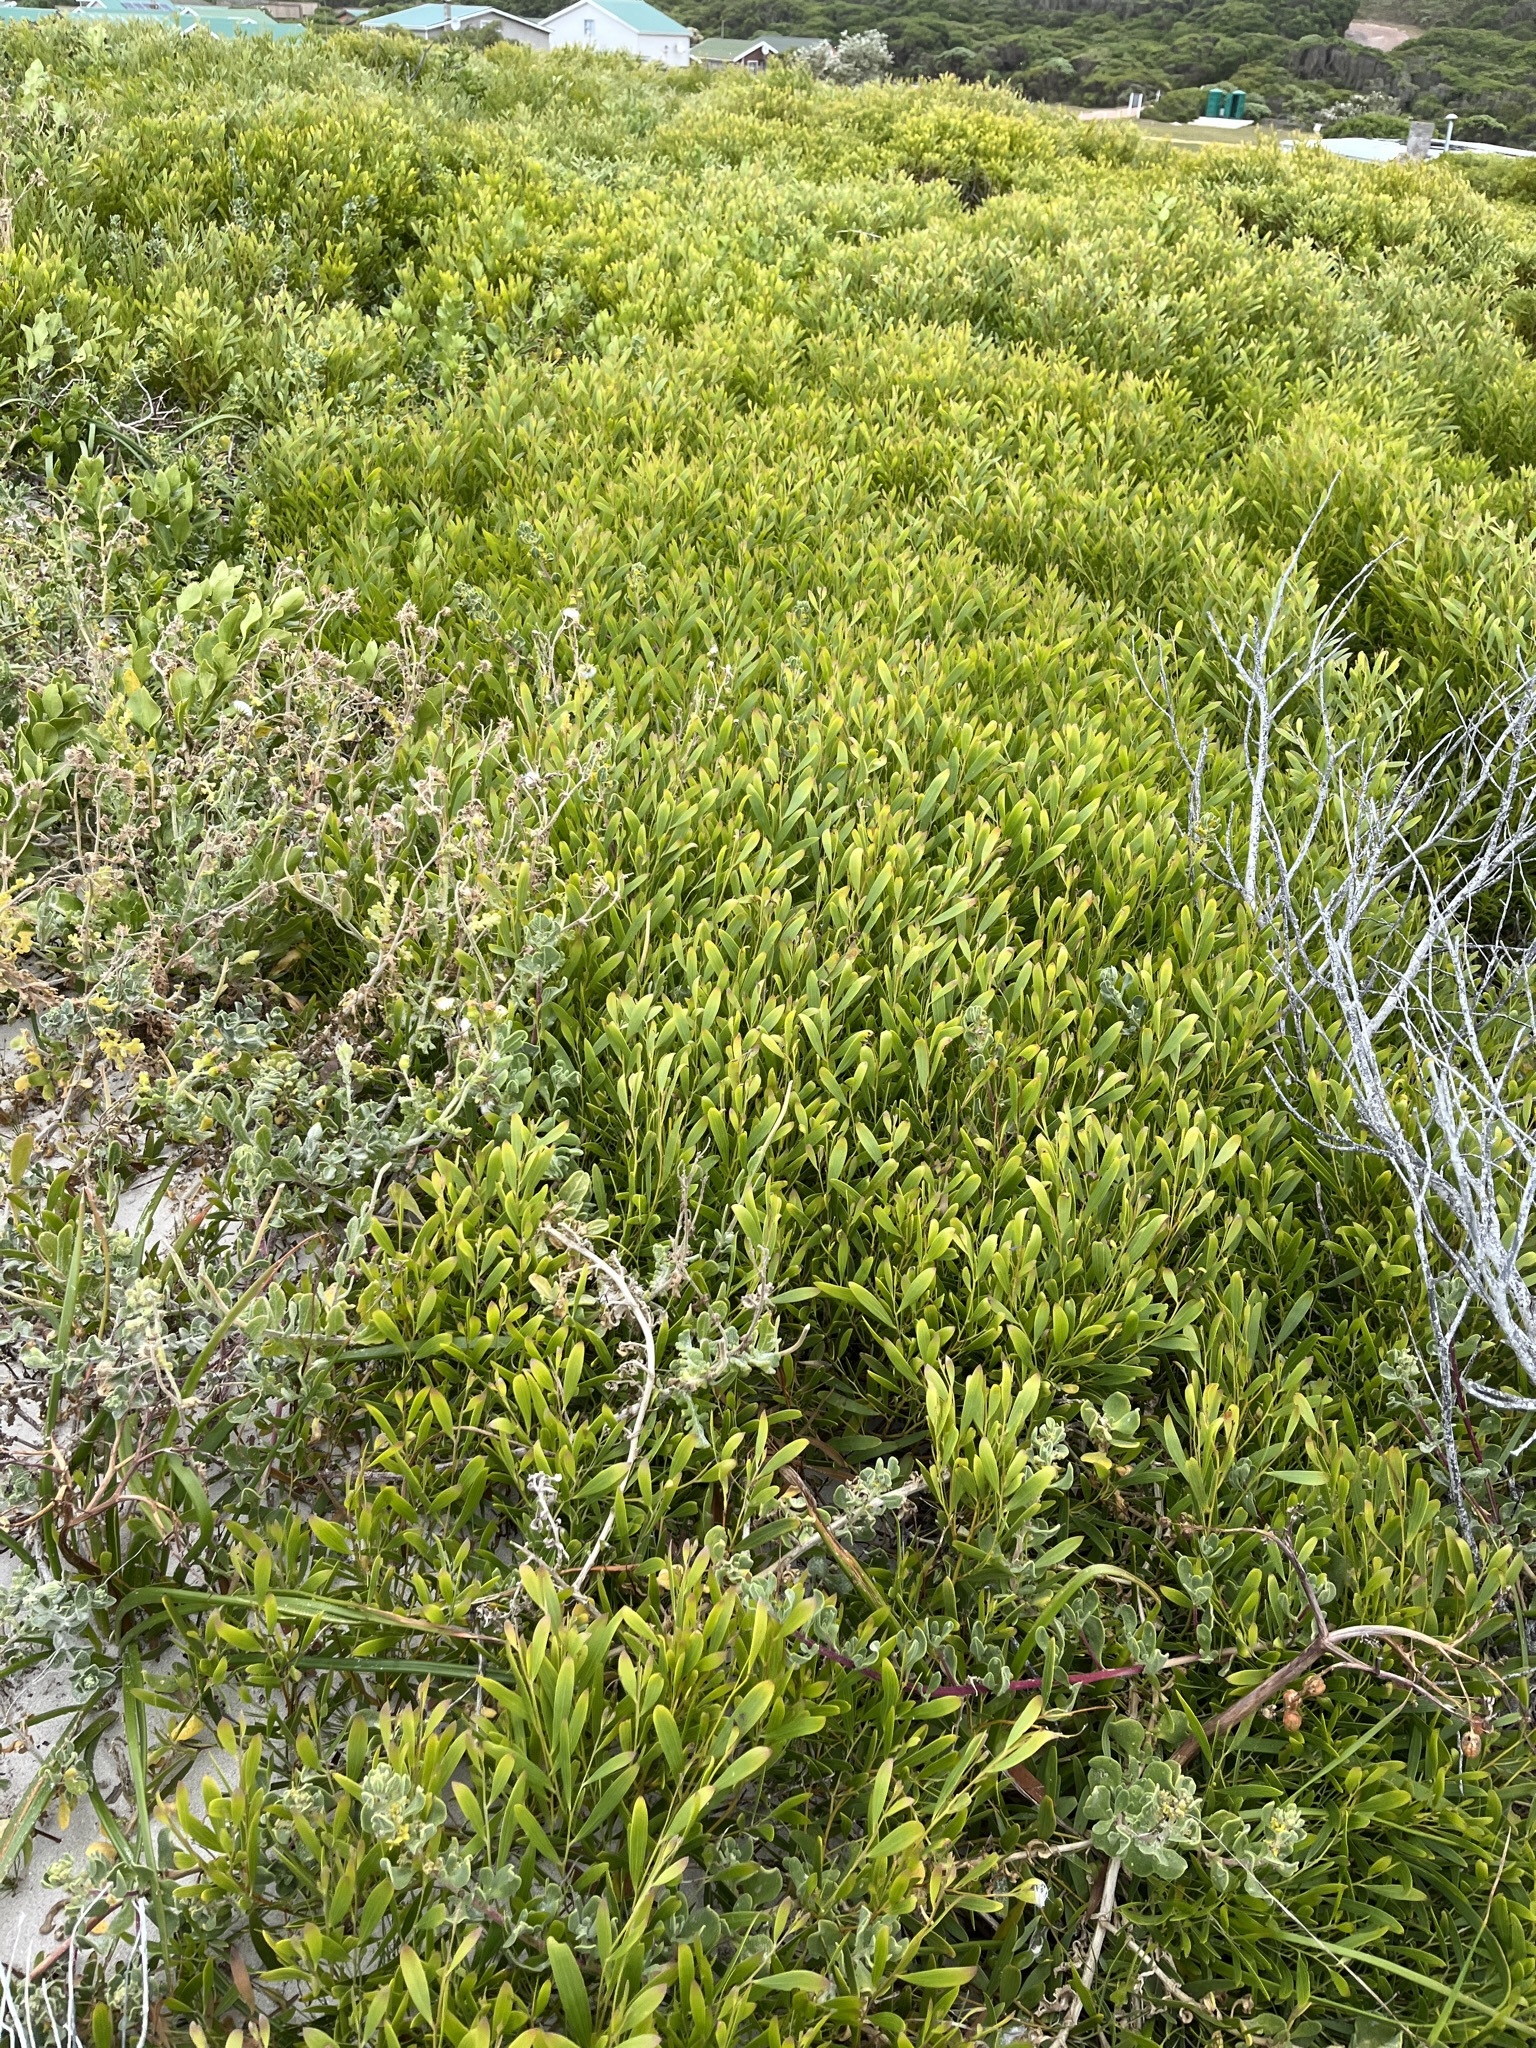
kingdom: Plantae
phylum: Tracheophyta
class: Magnoliopsida
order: Fabales
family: Fabaceae
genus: Acacia
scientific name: Acacia cyclops
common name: Coastal wattle
